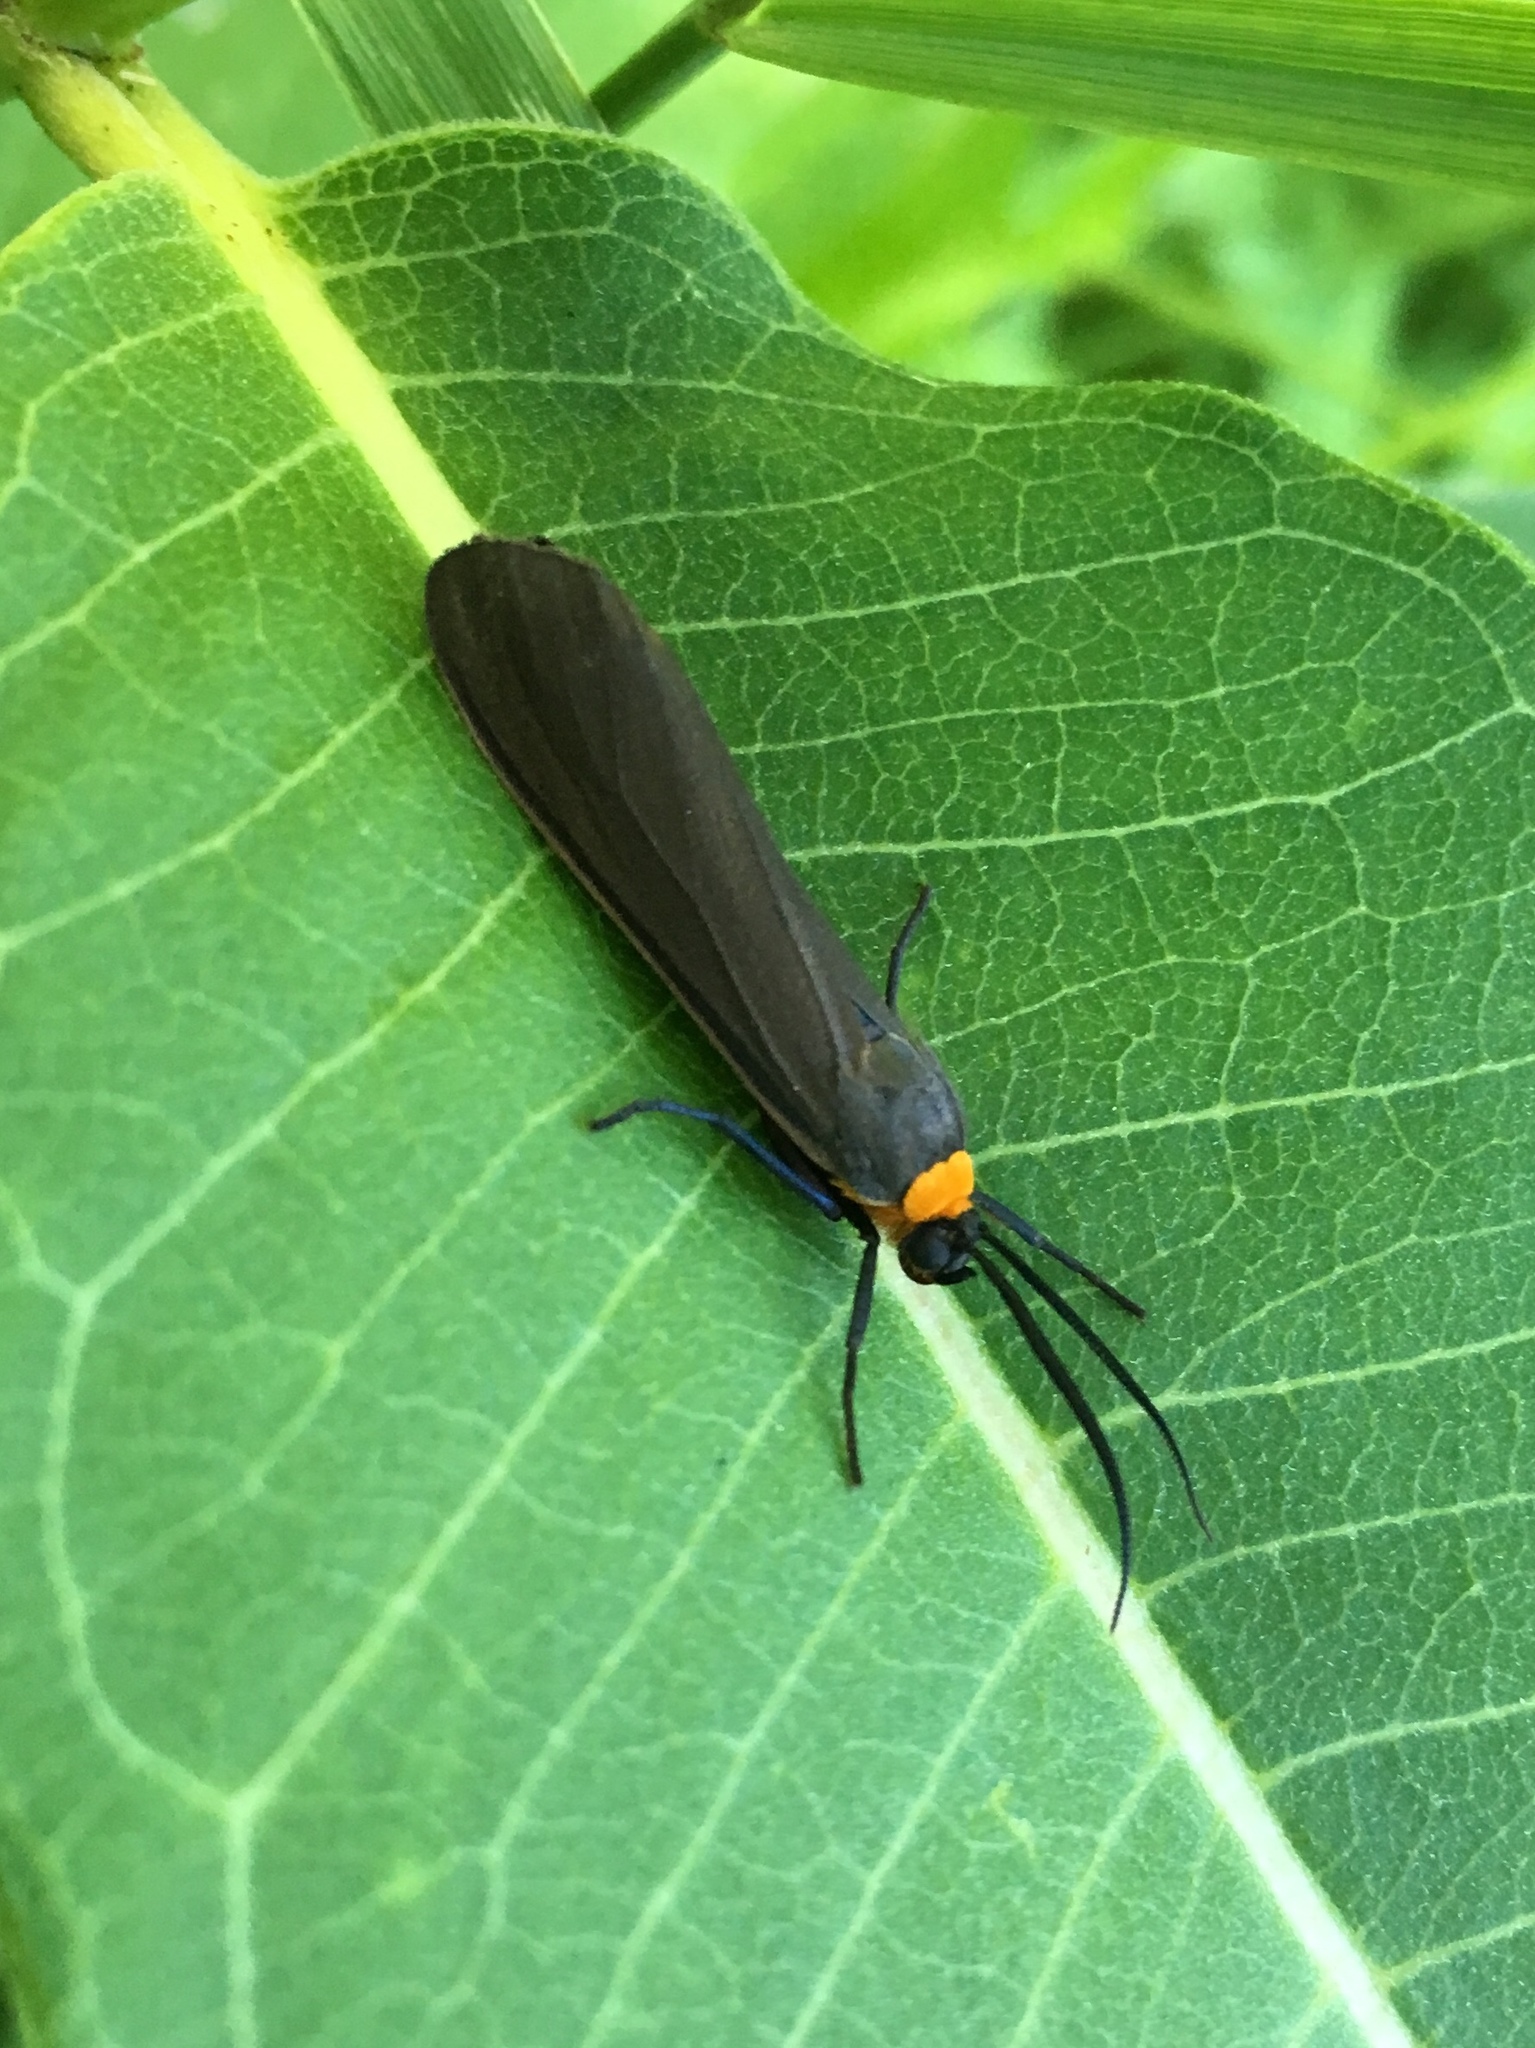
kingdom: Animalia
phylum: Arthropoda
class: Insecta
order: Lepidoptera
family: Erebidae
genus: Cisseps
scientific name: Cisseps fulvicollis
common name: Yellow-collared scape moth
